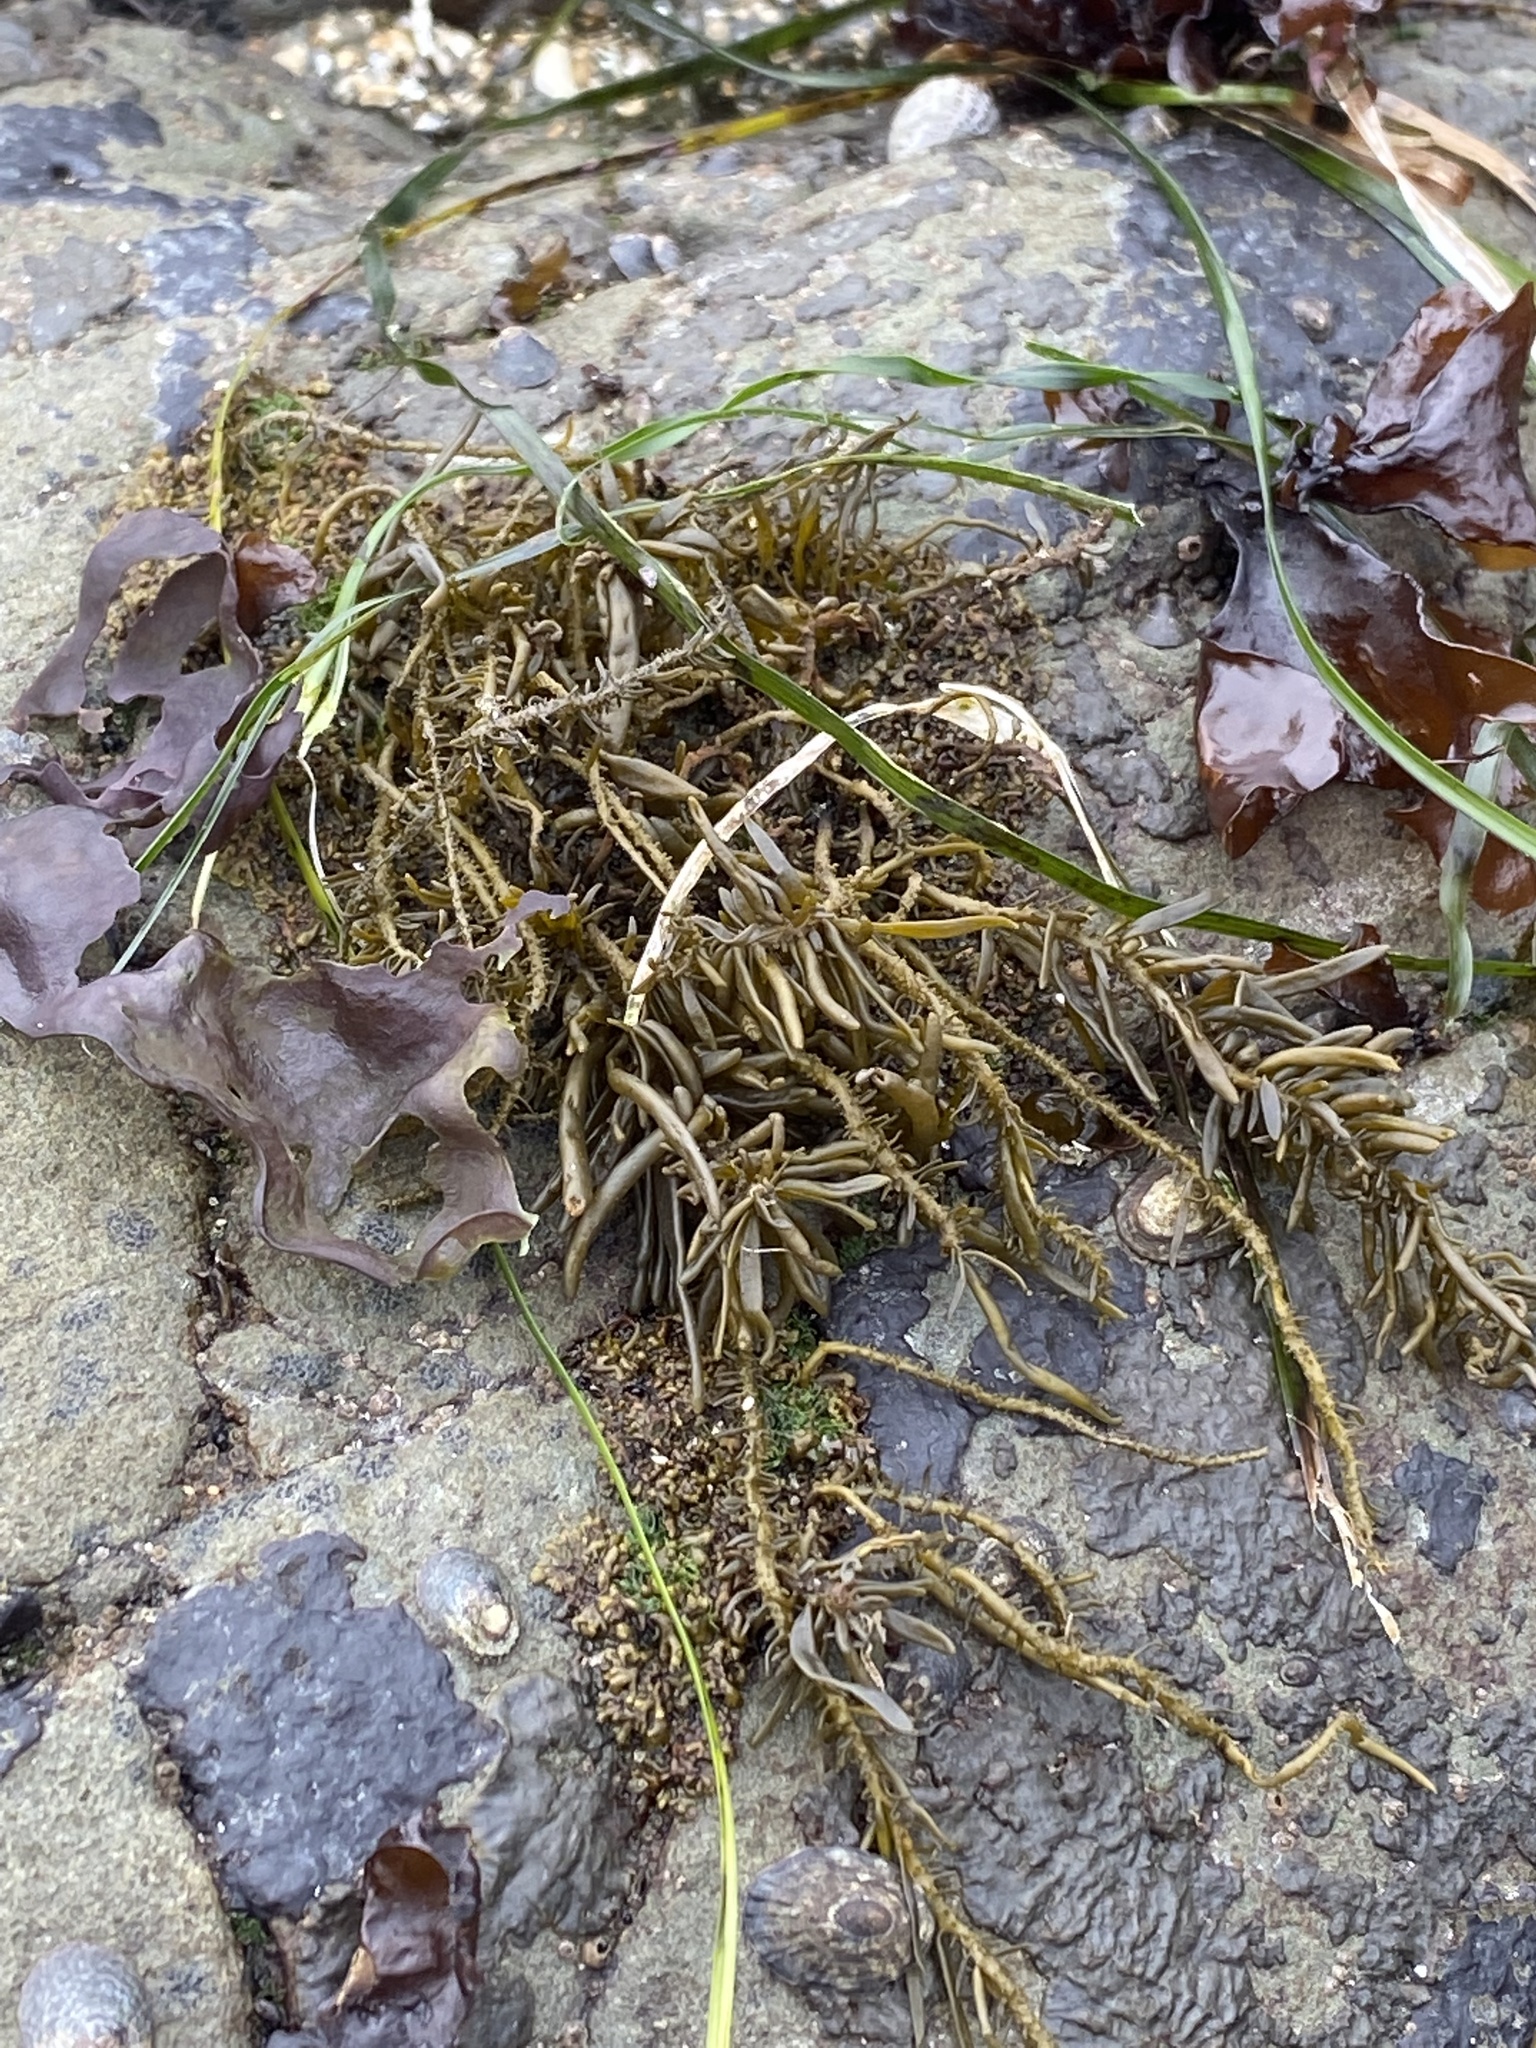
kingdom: Chromista
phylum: Ochrophyta
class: Phaeophyceae
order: Scytosiphonales
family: Scytosiphonaceae
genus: Analipus
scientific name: Analipus japonicus
